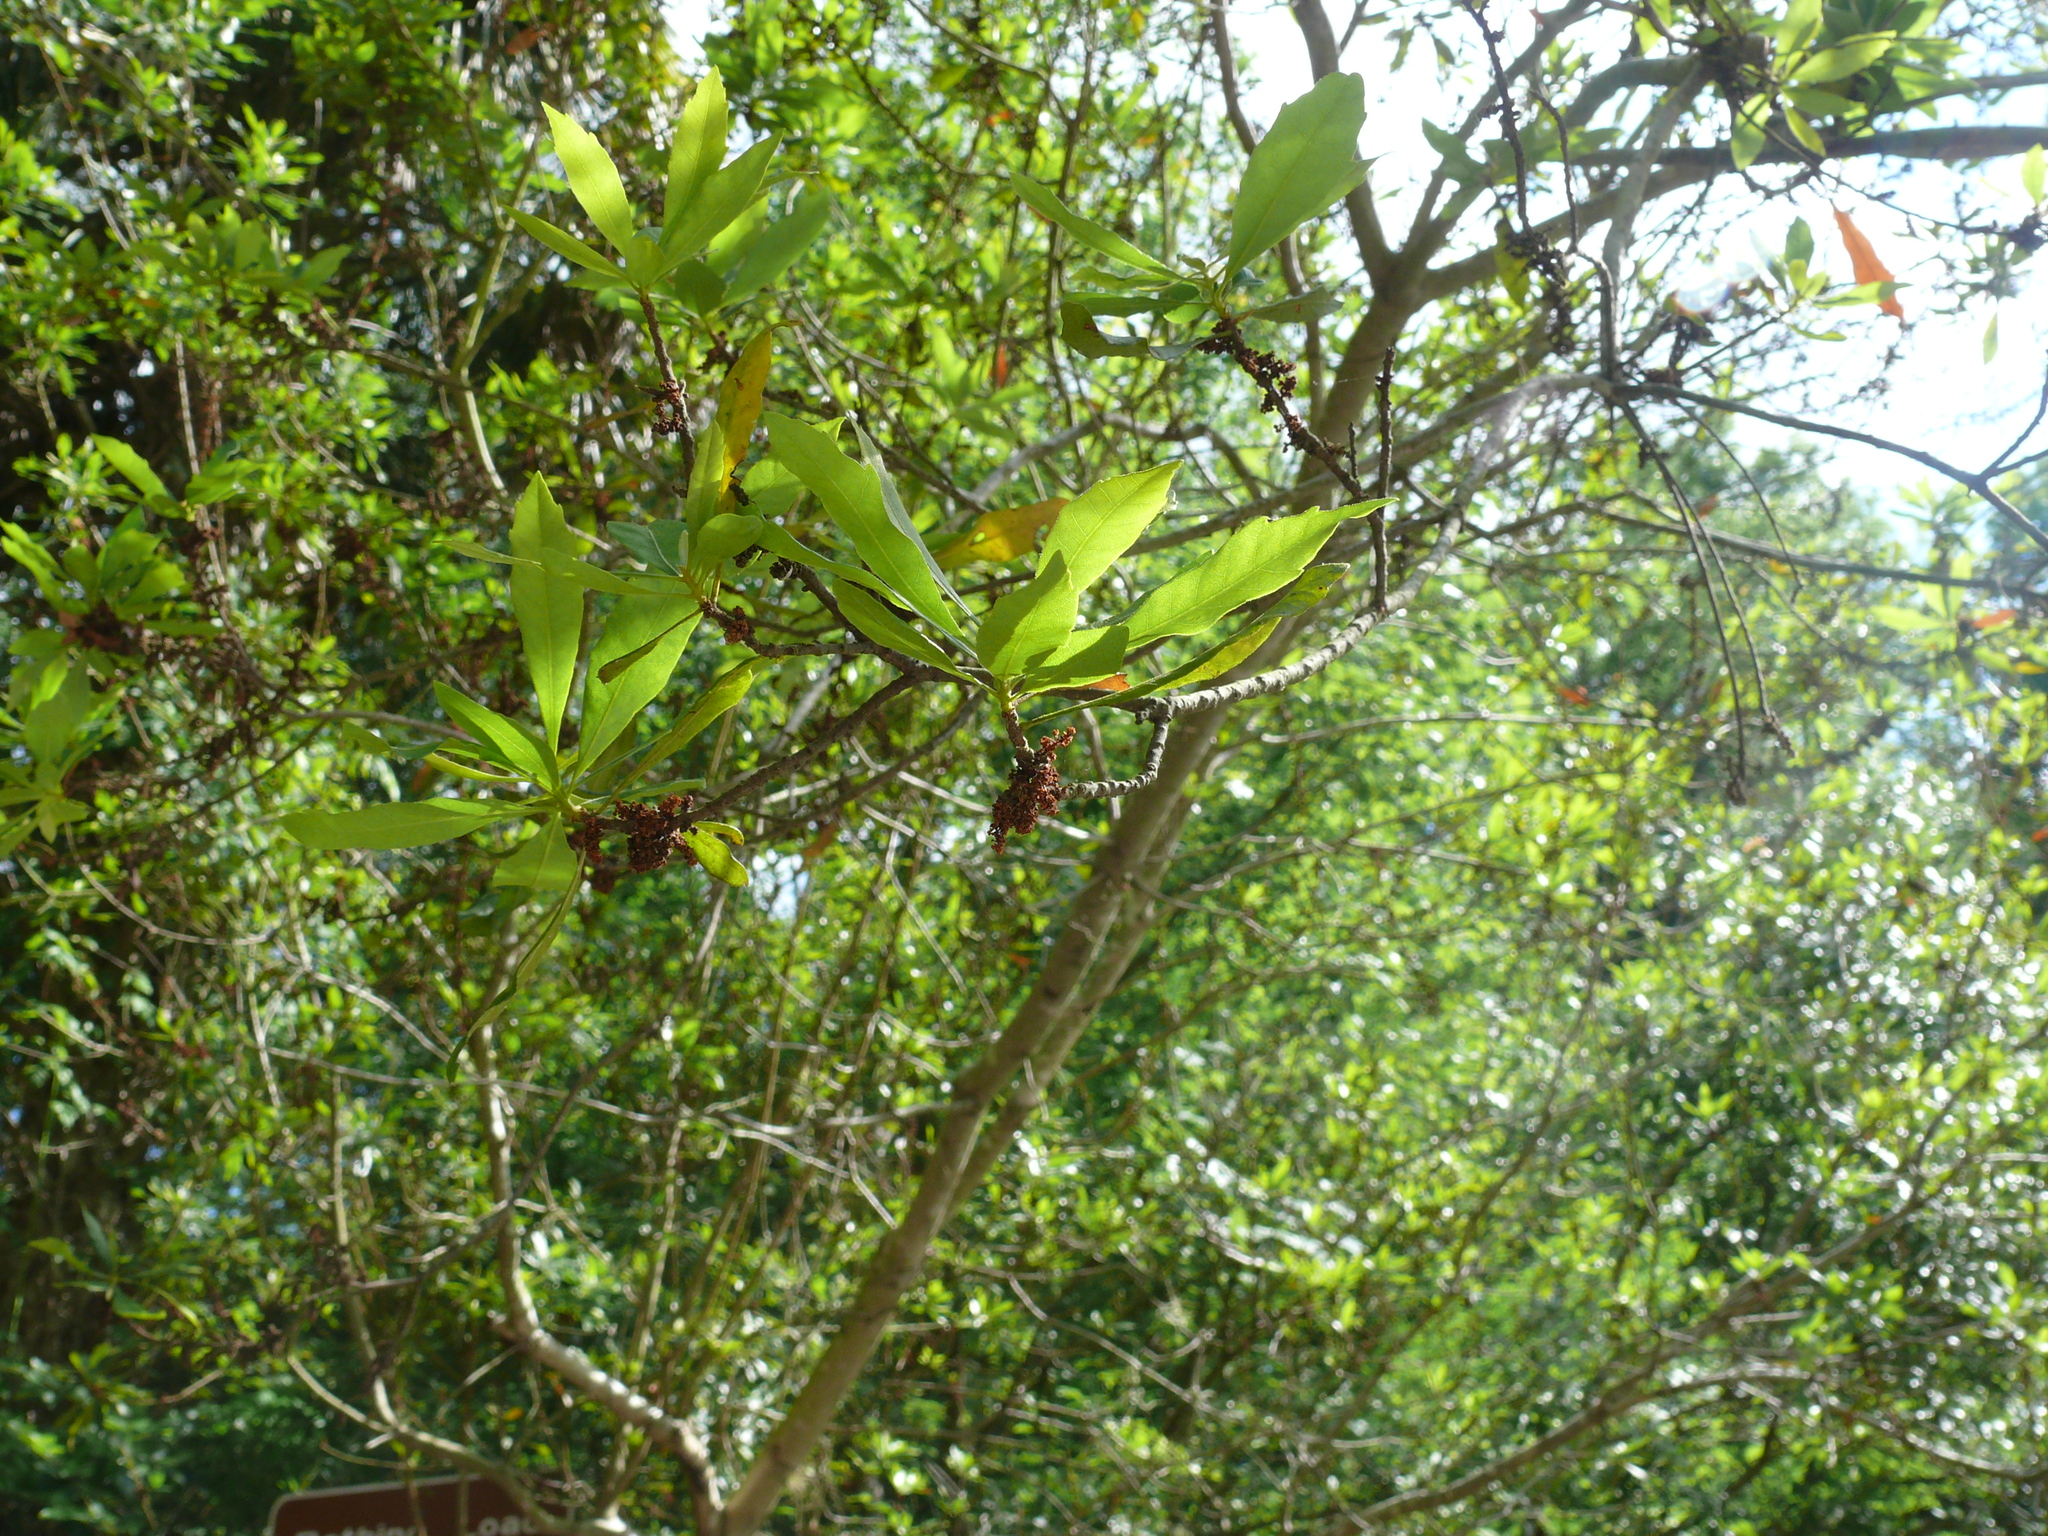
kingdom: Plantae
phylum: Tracheophyta
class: Magnoliopsida
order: Fagales
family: Myricaceae
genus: Morella
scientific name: Morella cerifera
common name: Wax myrtle
